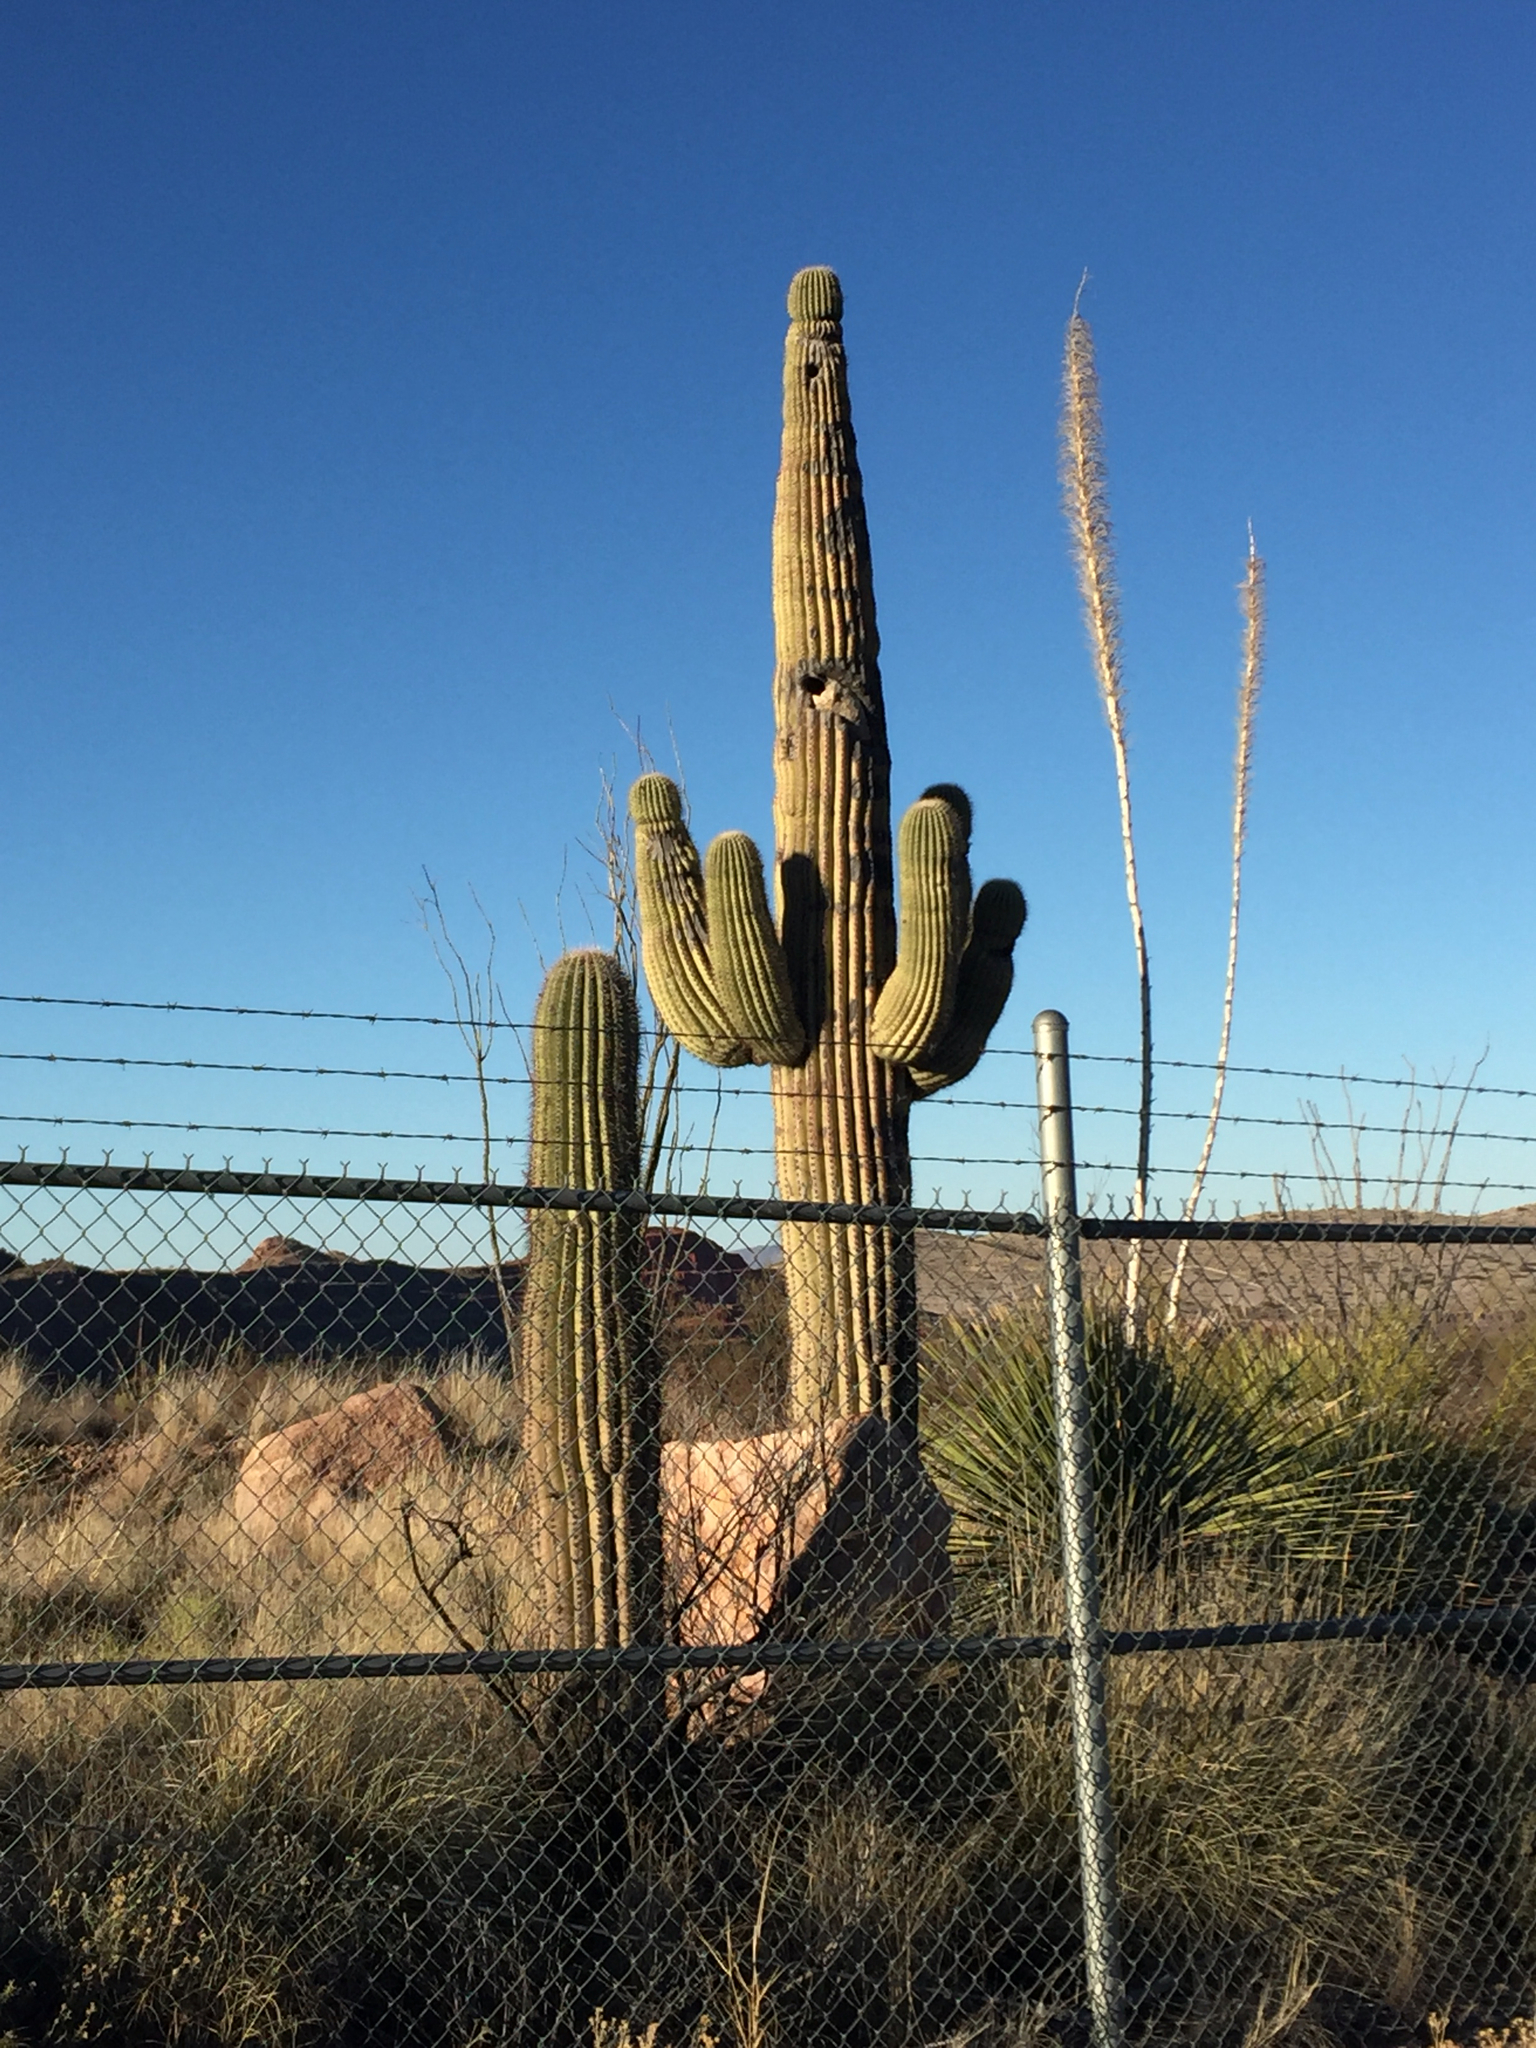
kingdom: Plantae
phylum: Tracheophyta
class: Magnoliopsida
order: Caryophyllales
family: Cactaceae
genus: Carnegiea
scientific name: Carnegiea gigantea
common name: Saguaro
